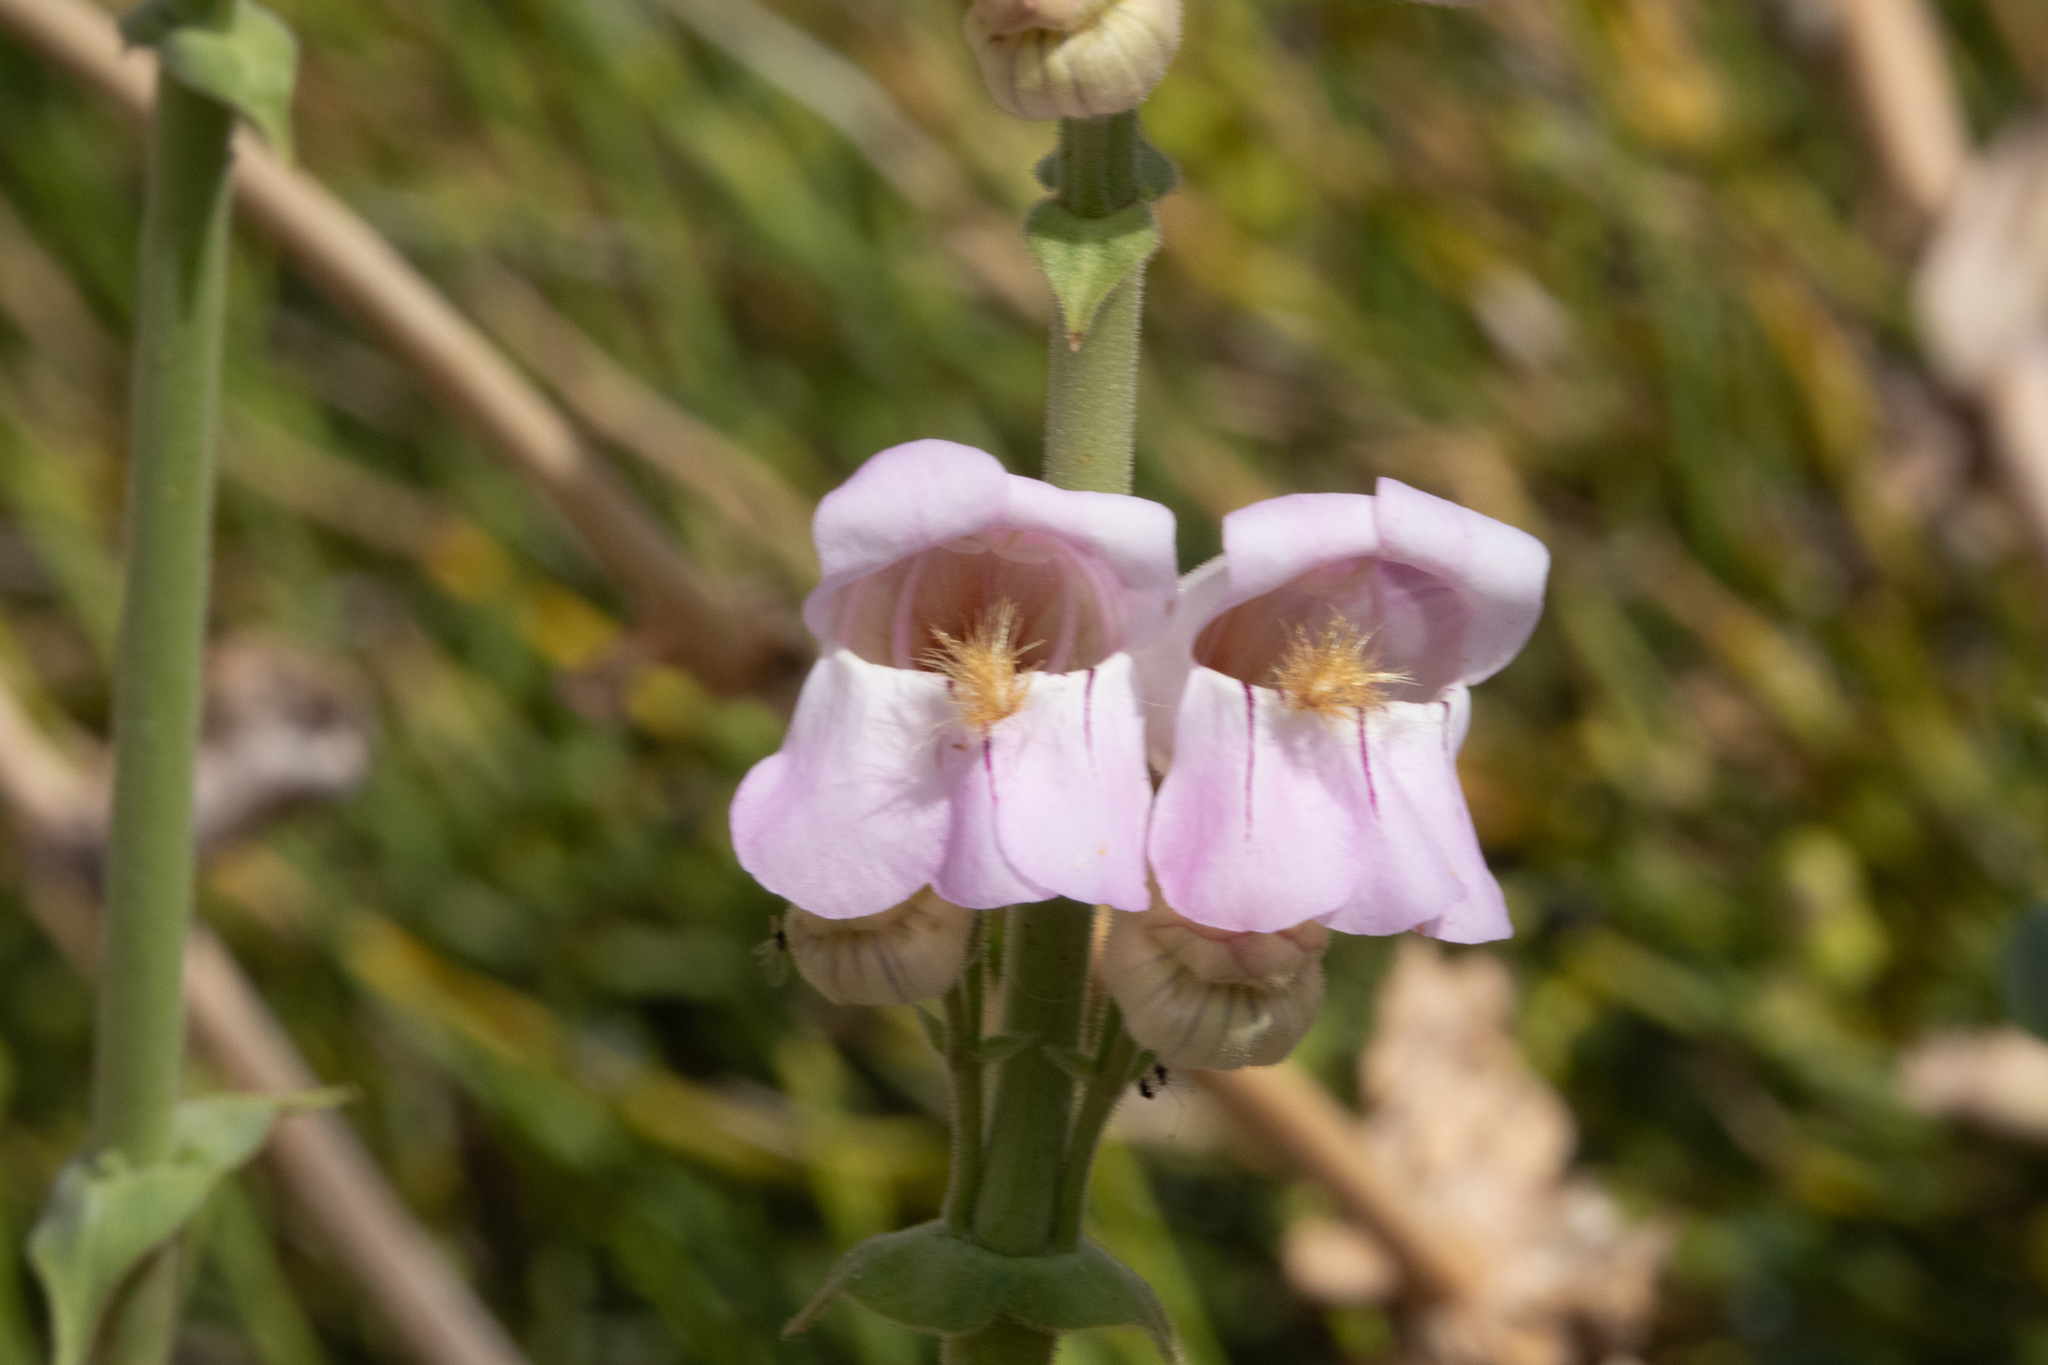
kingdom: Plantae
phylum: Tracheophyta
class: Magnoliopsida
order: Lamiales
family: Plantaginaceae
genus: Penstemon
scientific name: Penstemon palmeri
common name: Palmer penstemon
